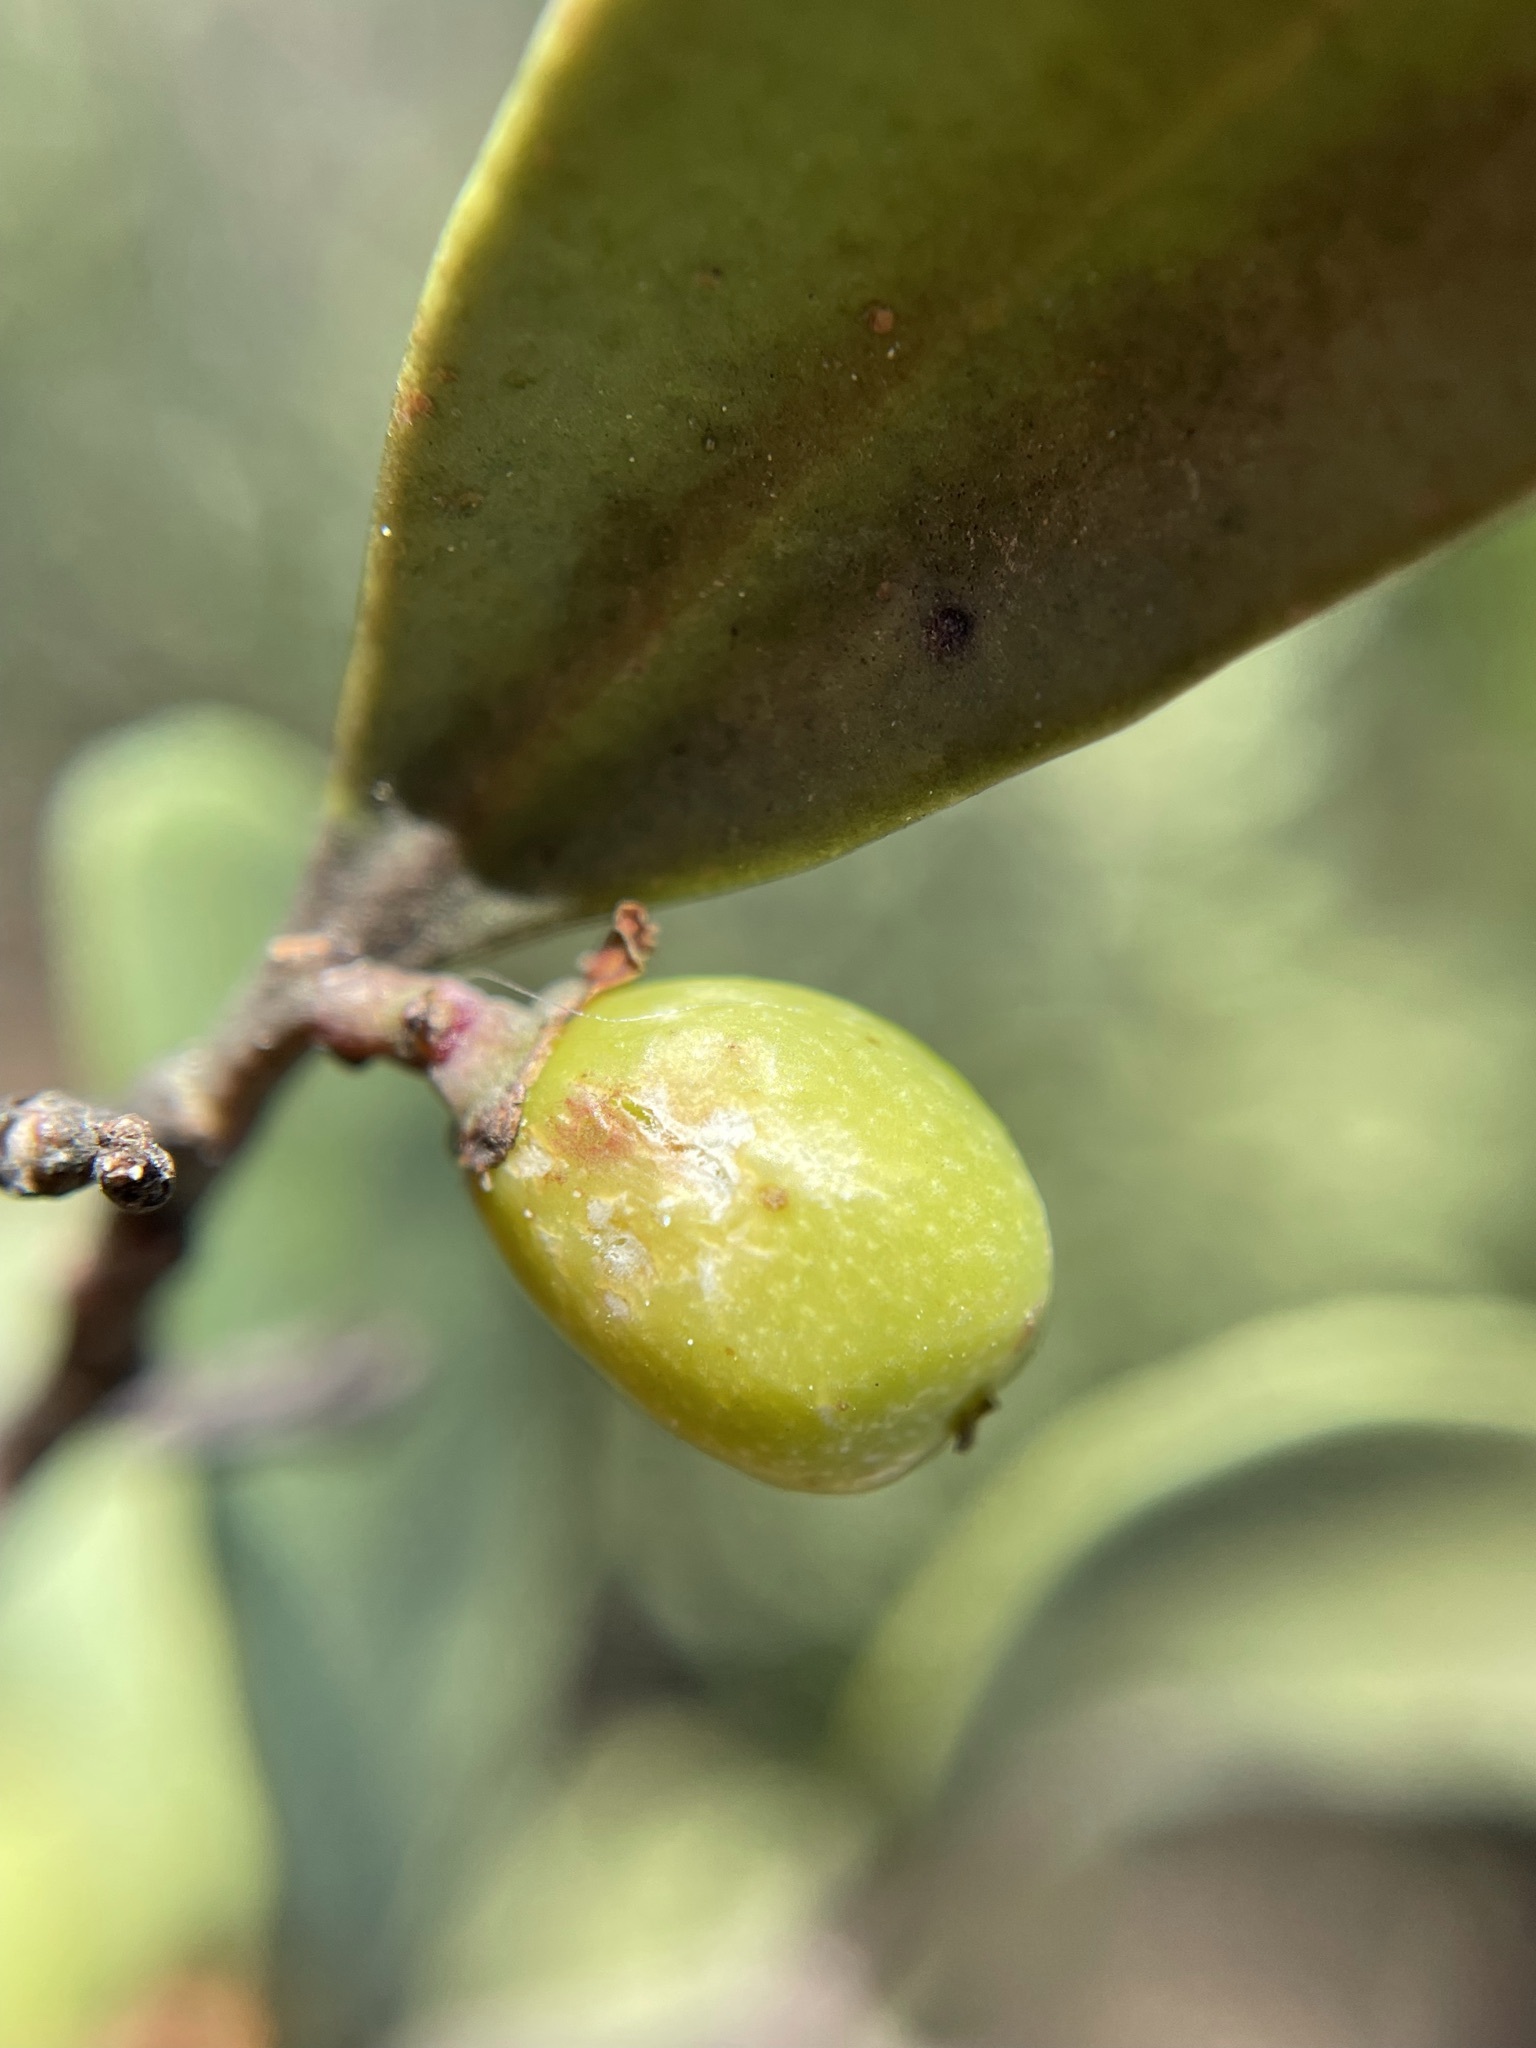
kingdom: Plantae
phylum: Tracheophyta
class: Magnoliopsida
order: Celastrales
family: Celastraceae
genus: Gymnosporia
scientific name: Gymnosporia laurina
